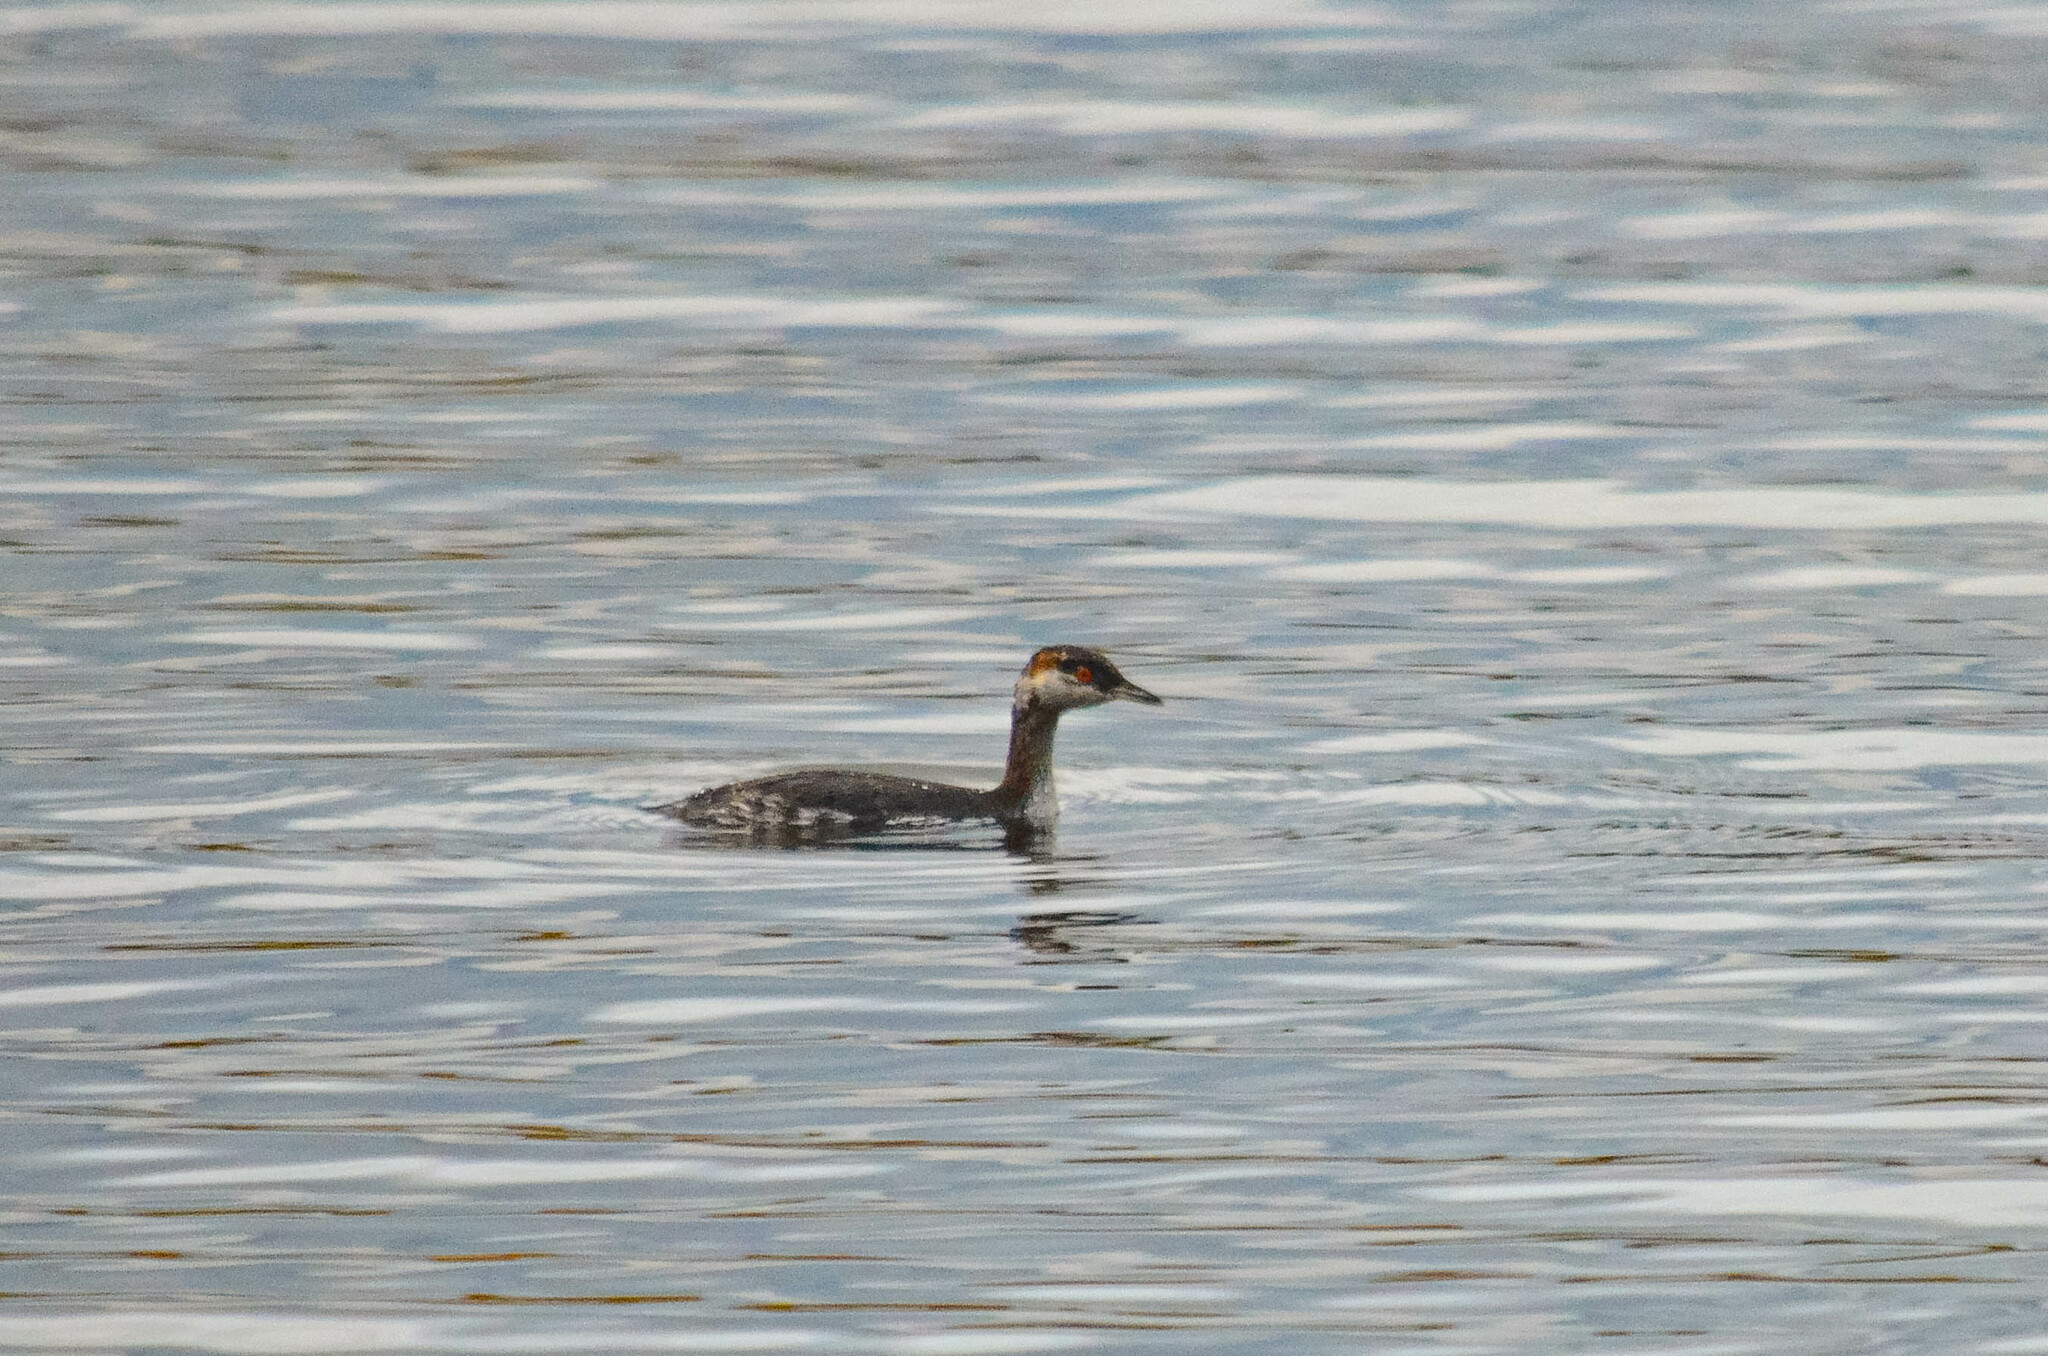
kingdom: Animalia
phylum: Chordata
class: Aves
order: Podicipediformes
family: Podicipedidae
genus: Podiceps
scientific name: Podiceps auritus
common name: Horned grebe
